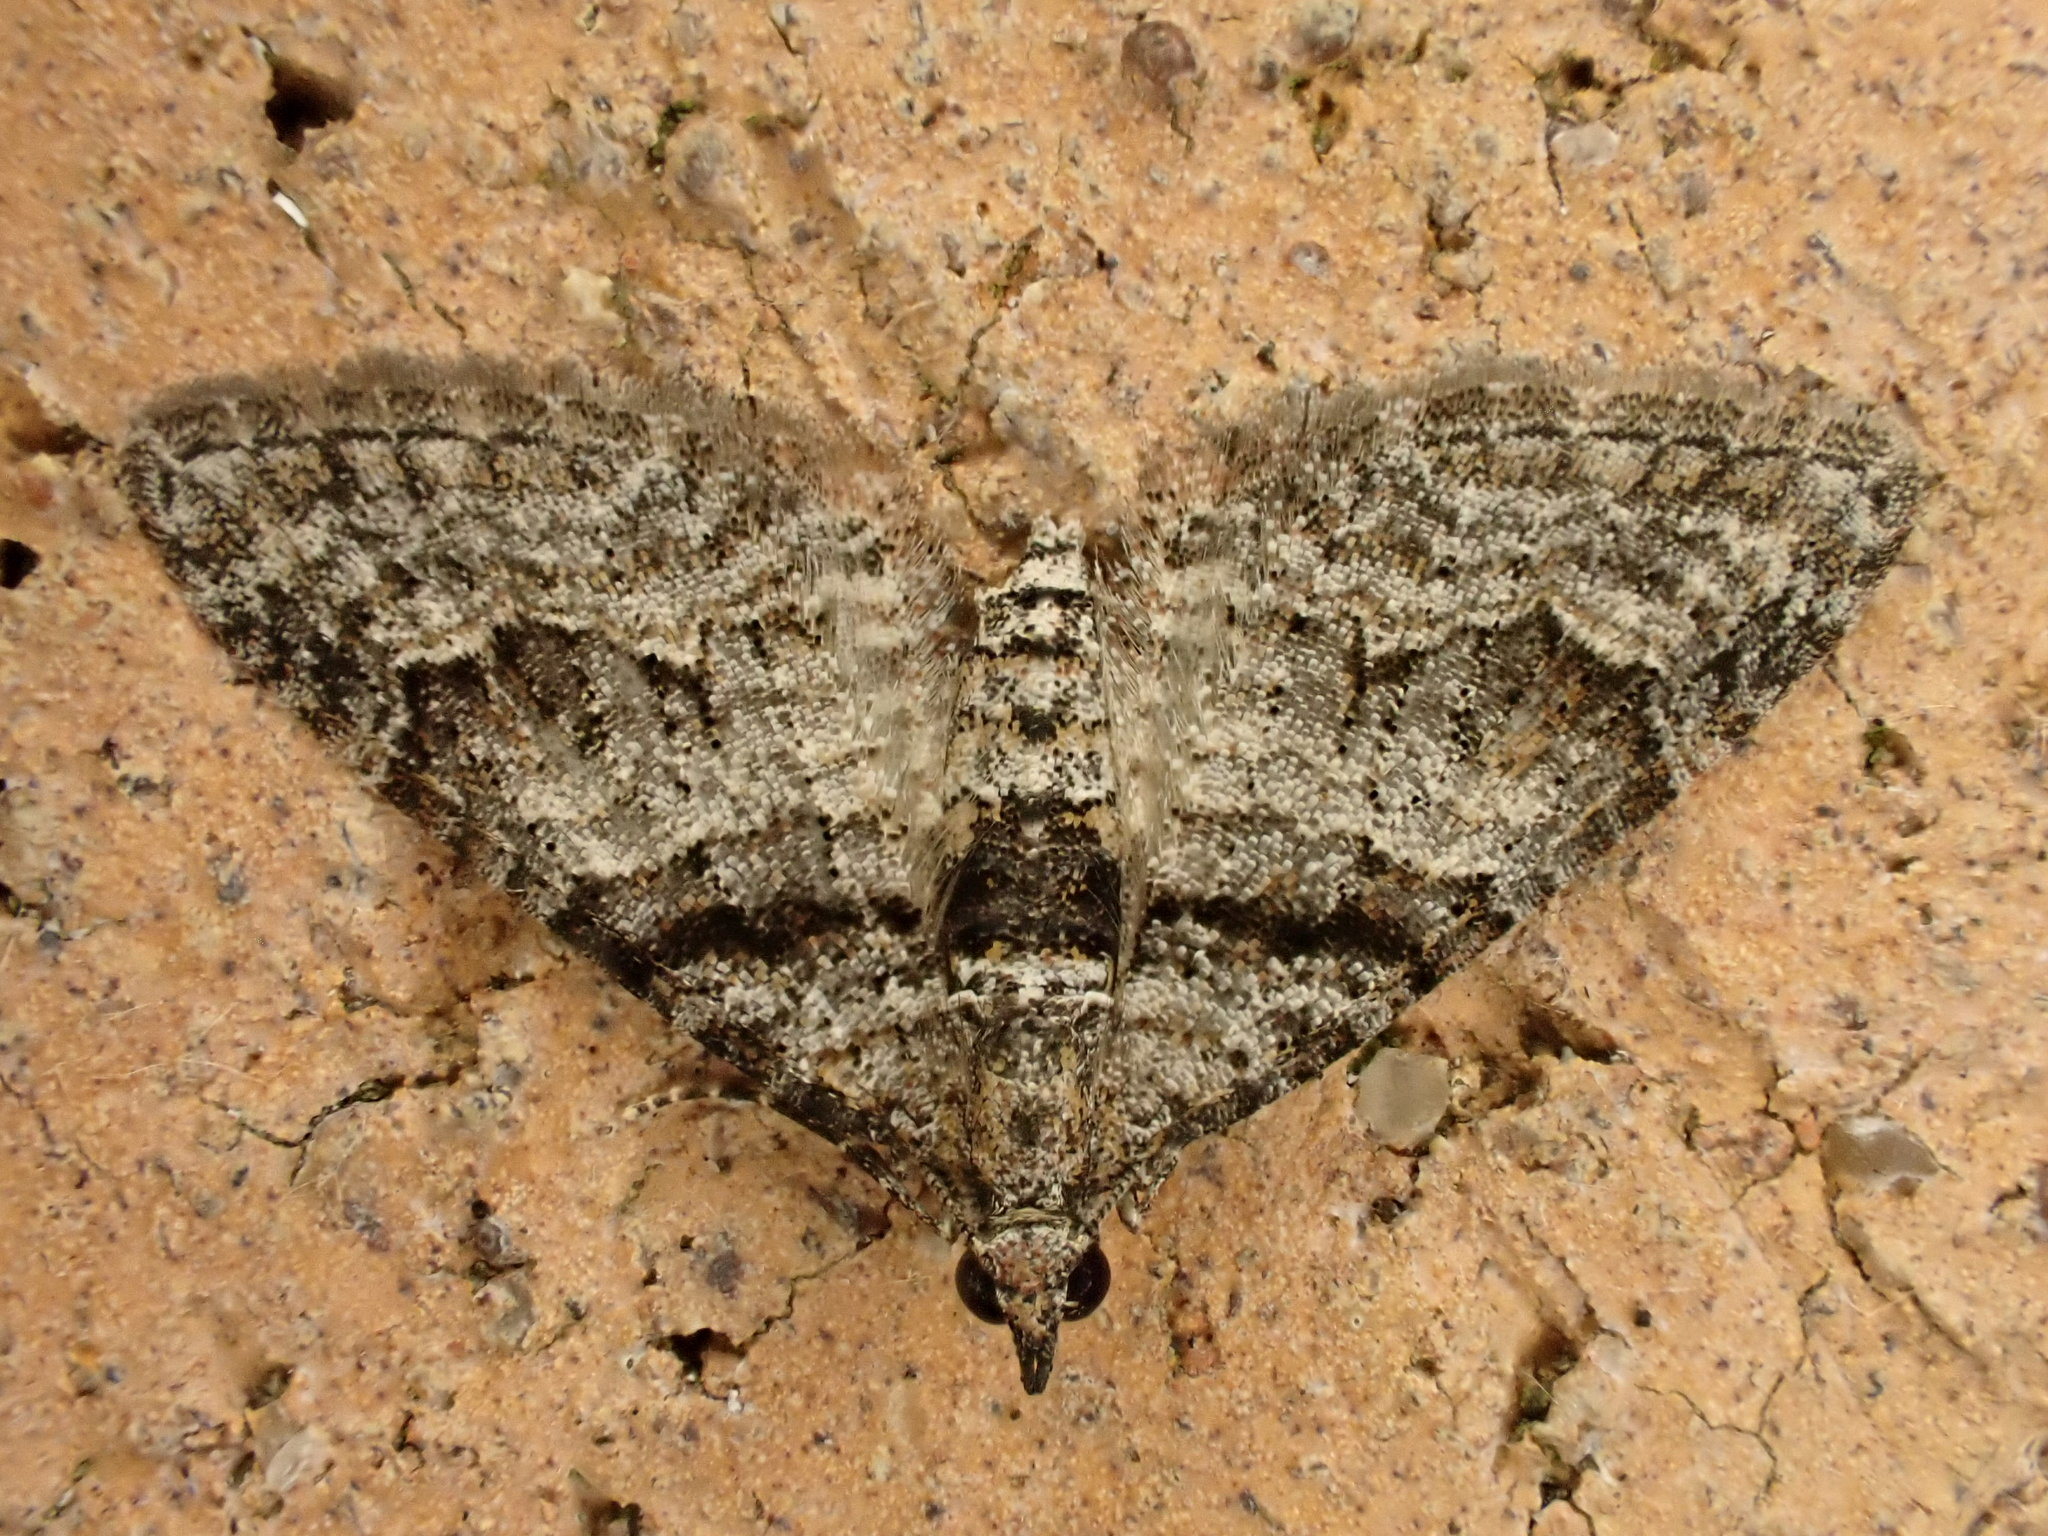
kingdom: Animalia
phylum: Arthropoda
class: Insecta
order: Lepidoptera
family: Geometridae
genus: Phrissogonus
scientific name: Phrissogonus laticostata
